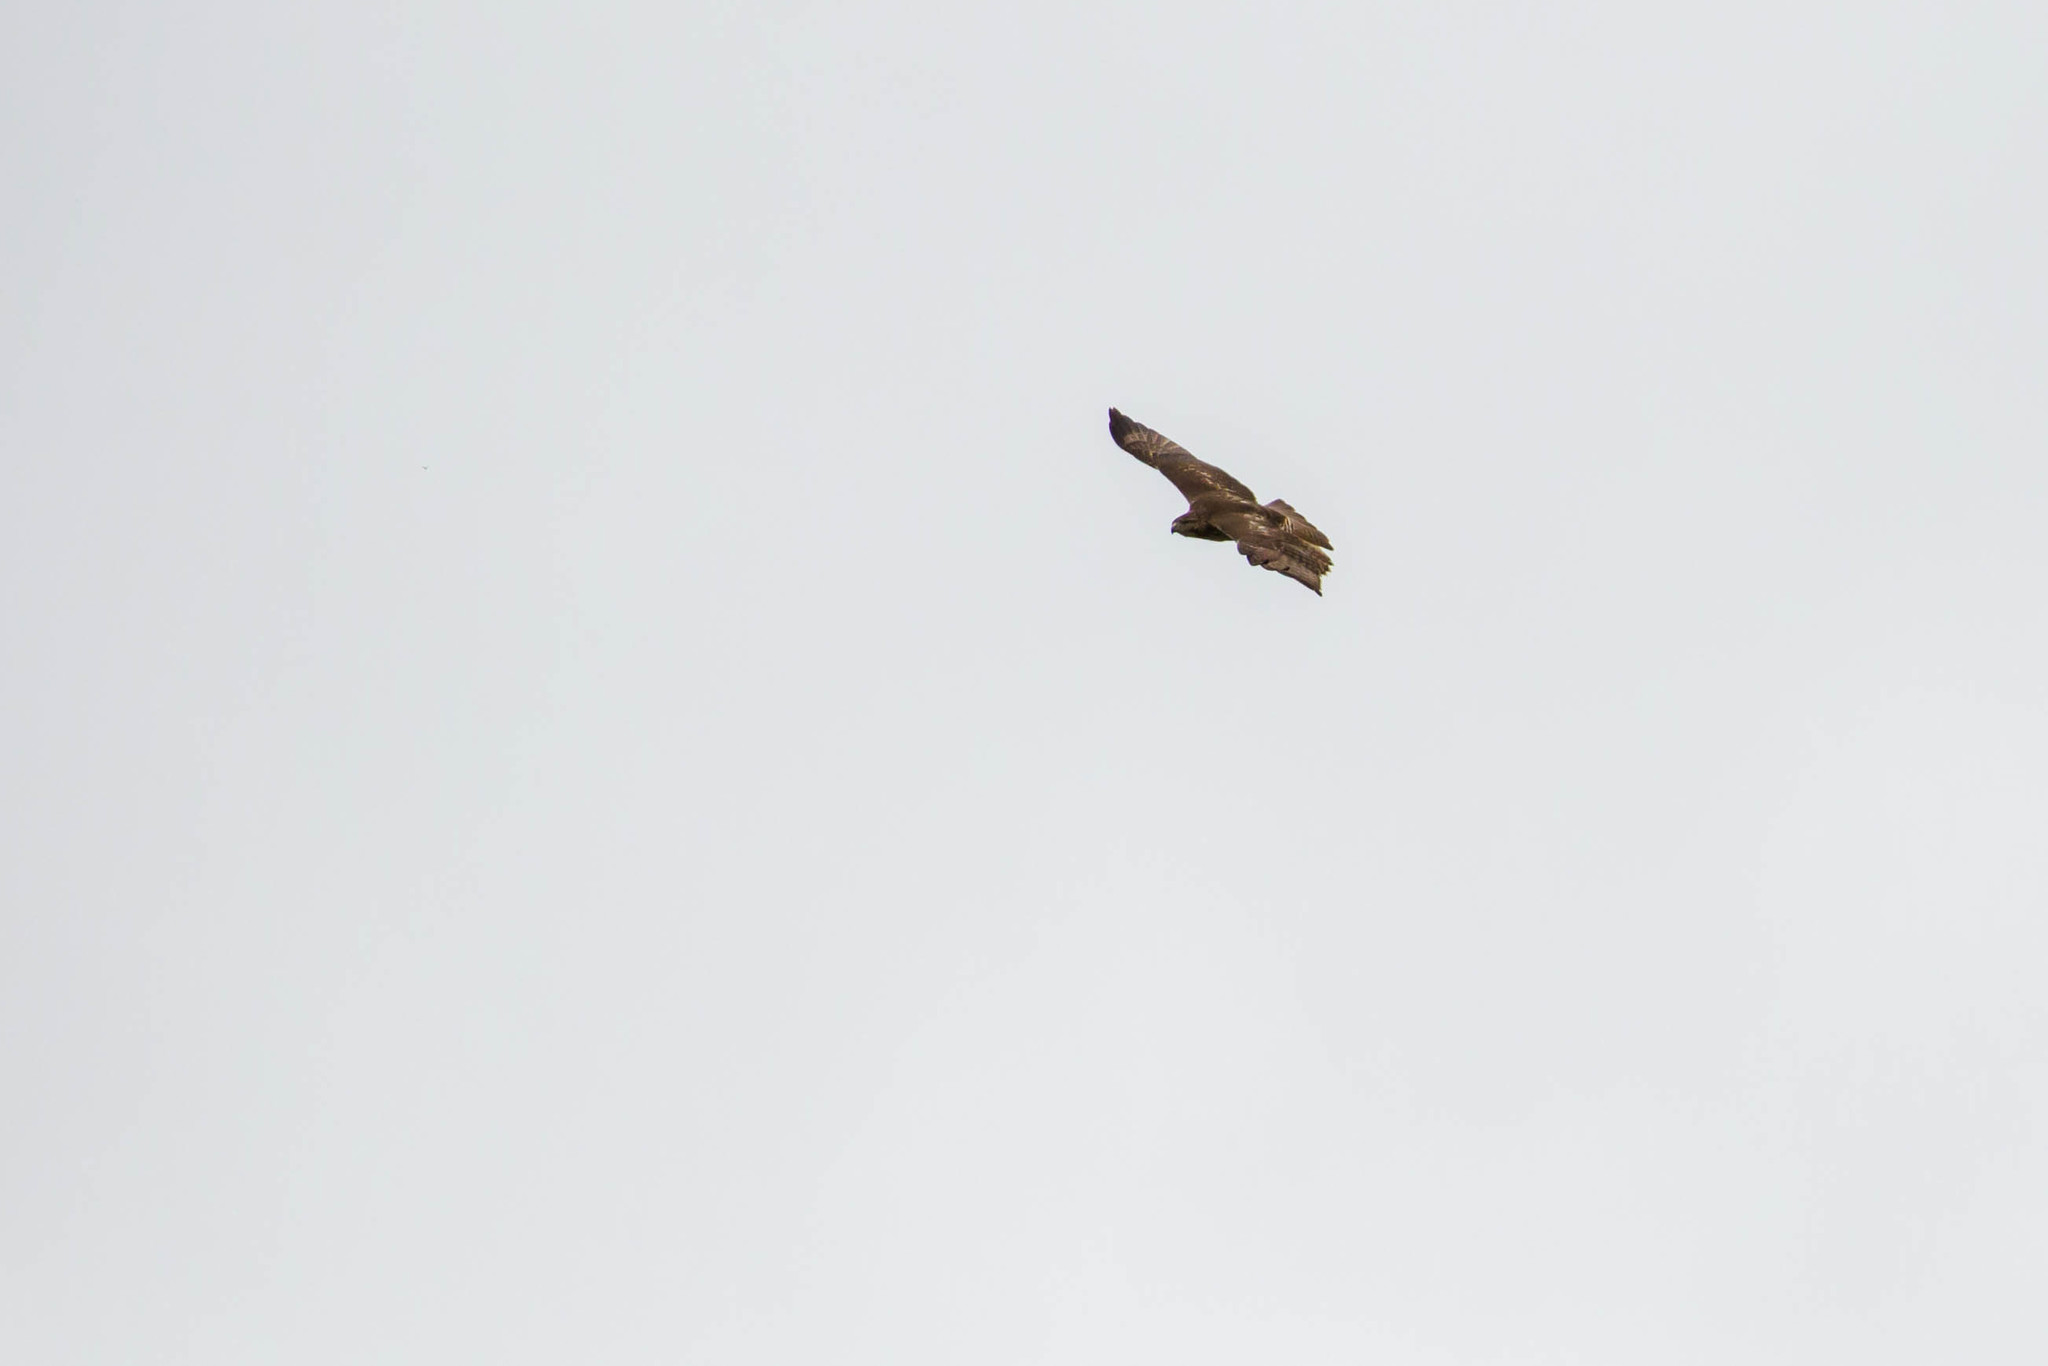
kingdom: Animalia
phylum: Chordata
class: Aves
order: Accipitriformes
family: Accipitridae
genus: Buteo
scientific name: Buteo jamaicensis
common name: Red-tailed hawk
